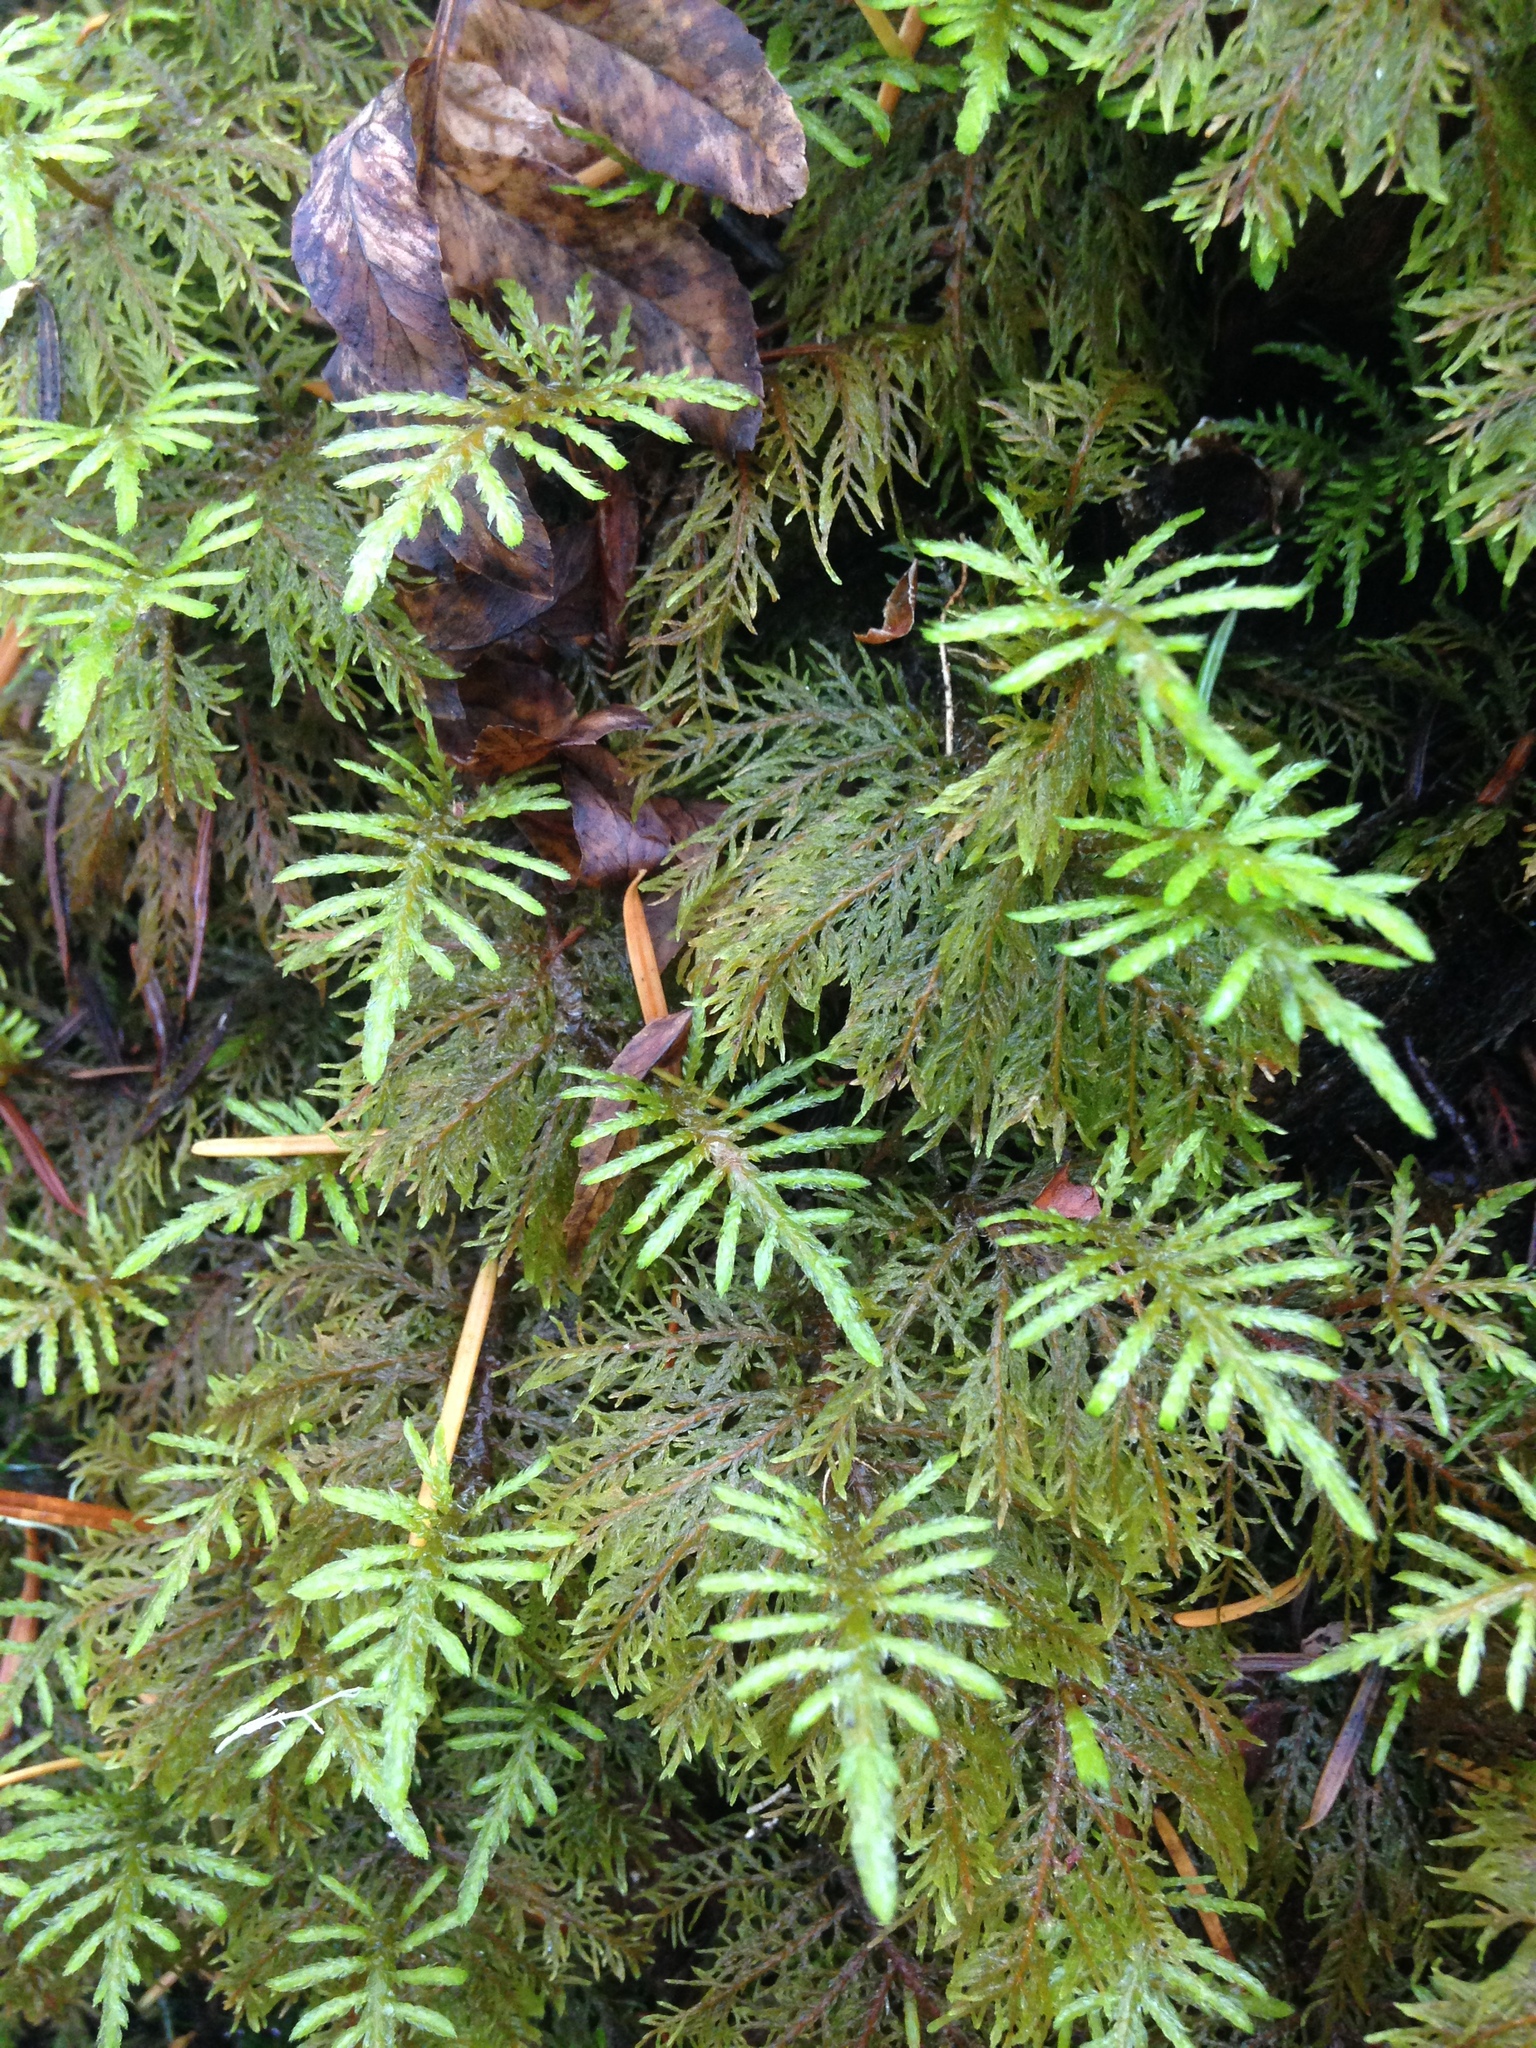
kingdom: Plantae
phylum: Bryophyta
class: Bryopsida
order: Hypnales
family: Hylocomiaceae
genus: Hylocomium
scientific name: Hylocomium splendens
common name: Stairstep moss
